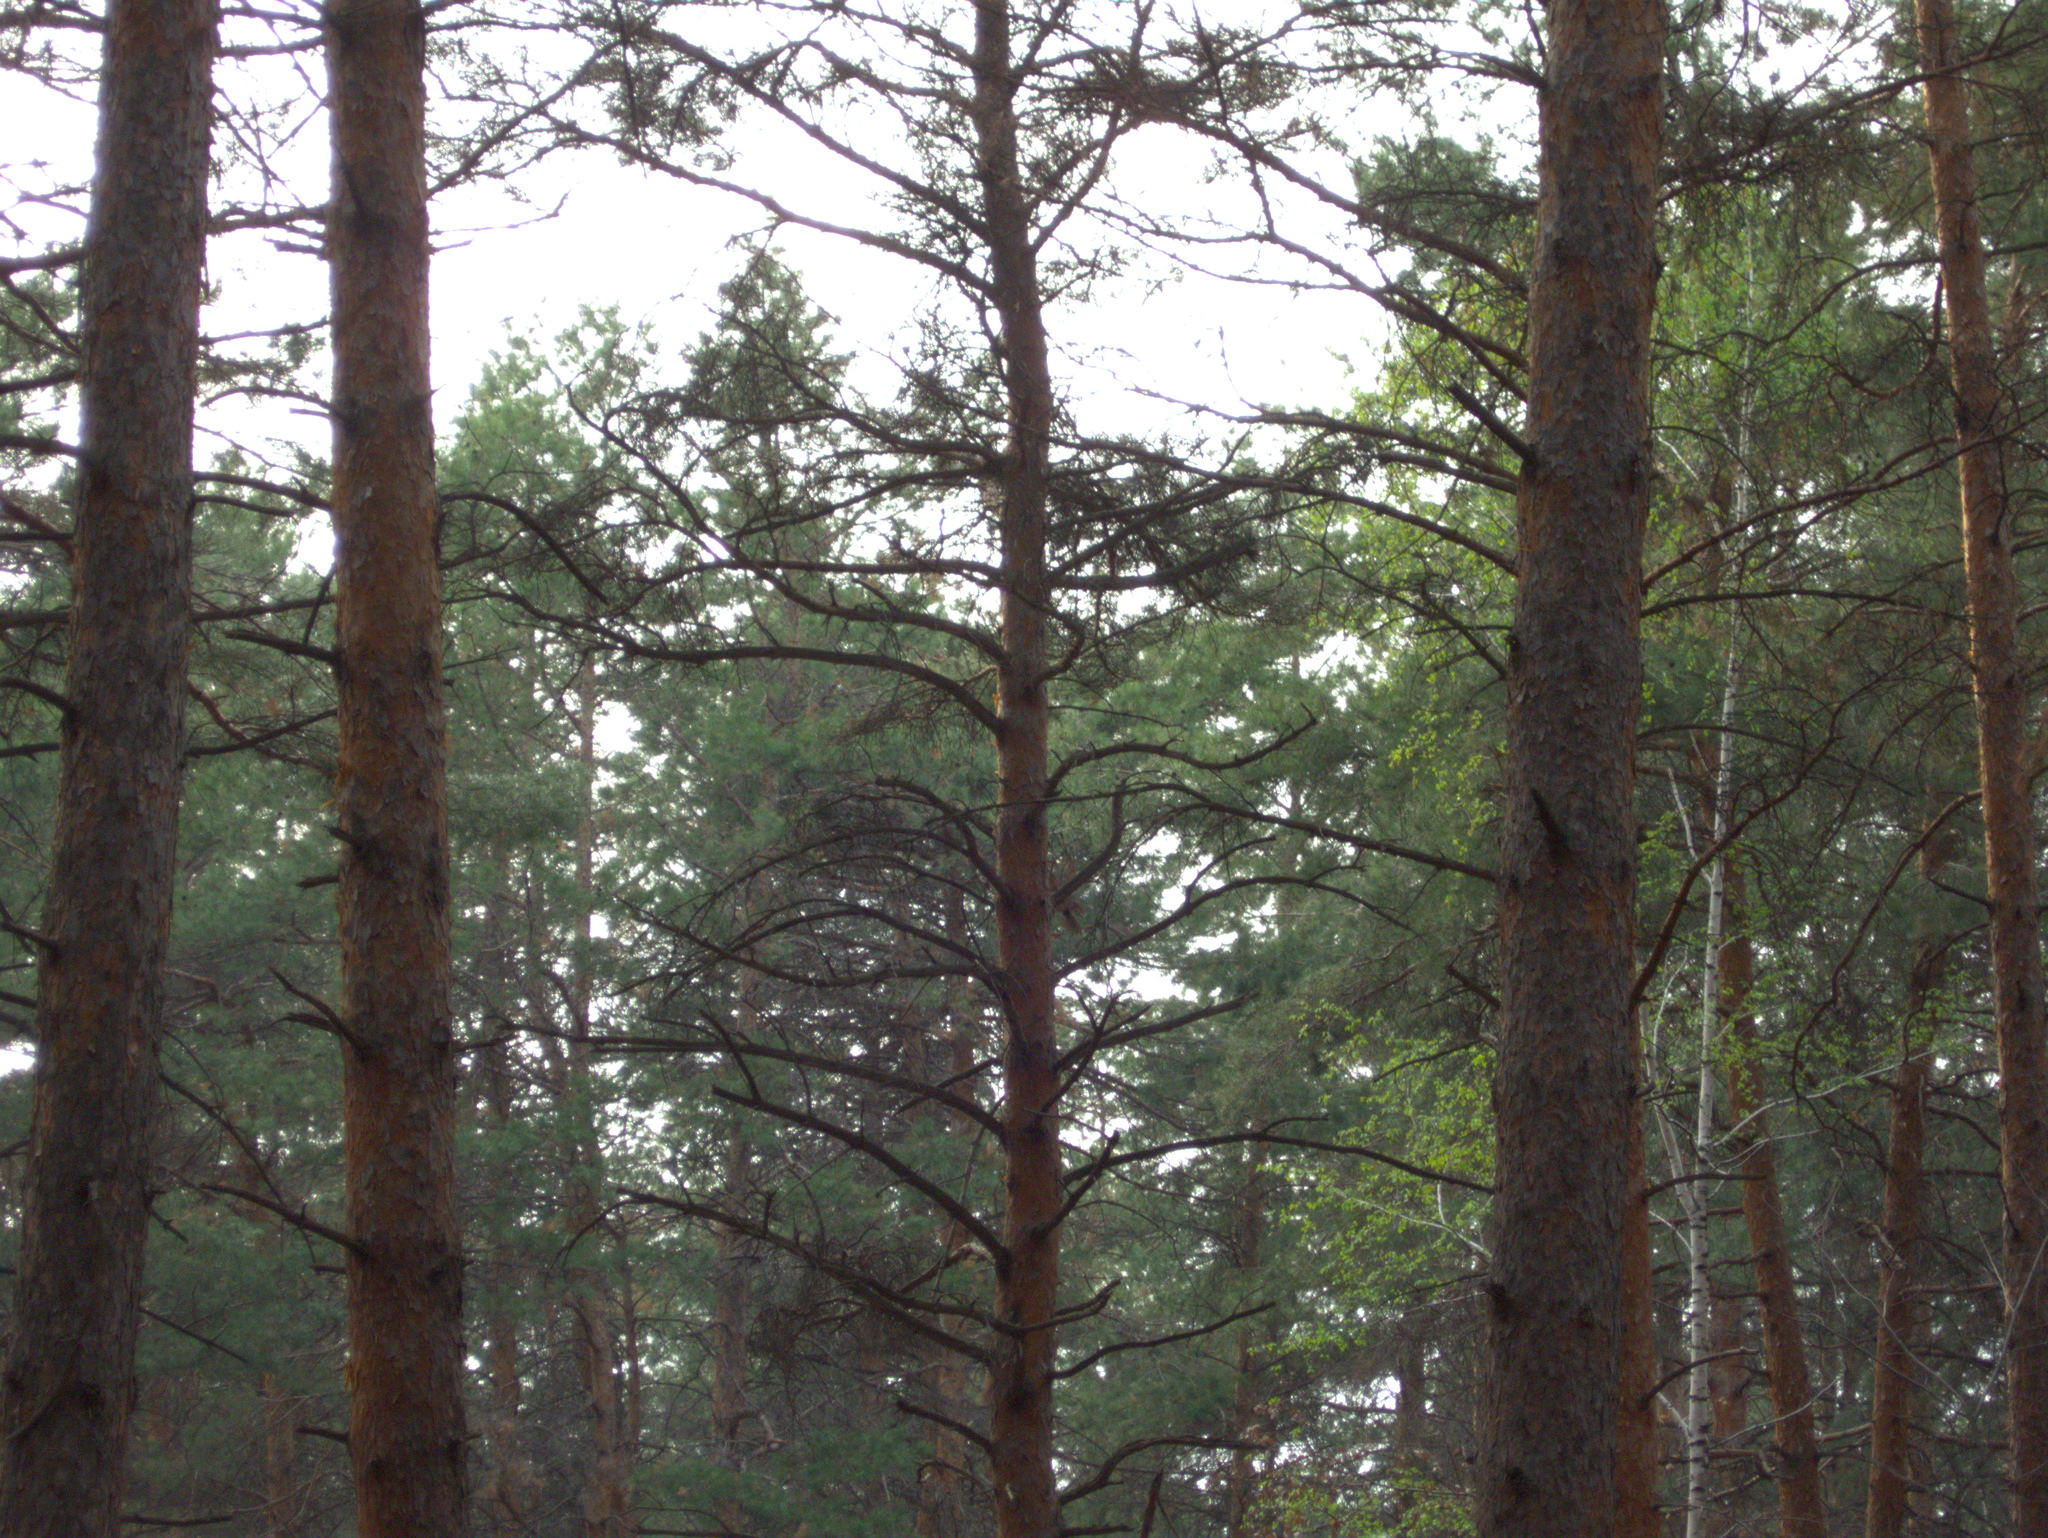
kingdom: Plantae
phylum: Tracheophyta
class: Pinopsida
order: Pinales
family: Pinaceae
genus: Pinus
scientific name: Pinus sylvestris
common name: Scots pine
